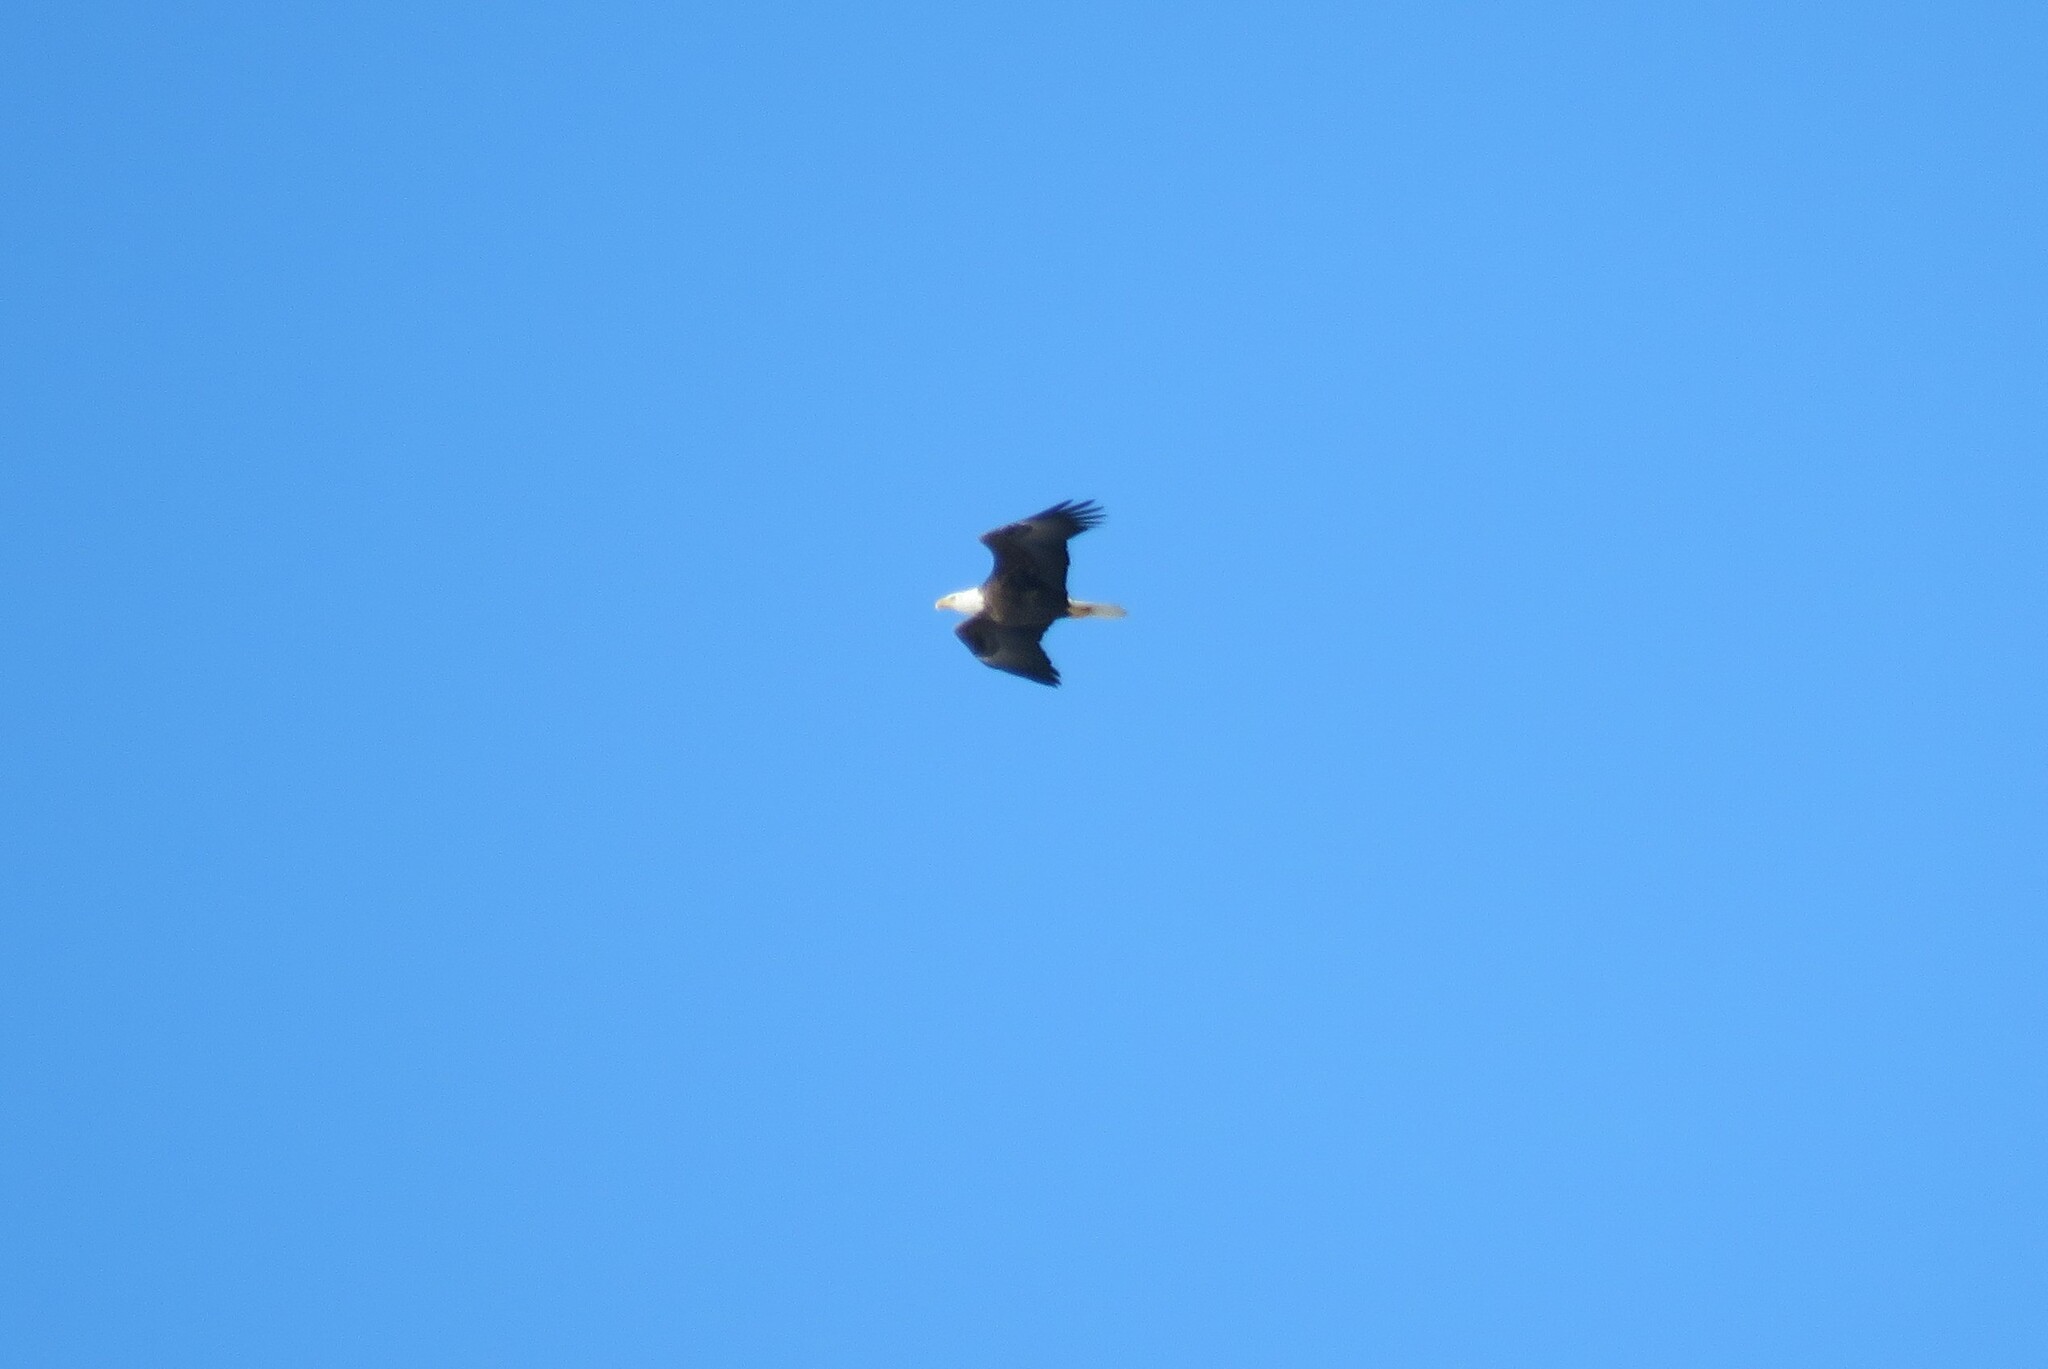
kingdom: Animalia
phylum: Chordata
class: Aves
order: Accipitriformes
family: Accipitridae
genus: Haliaeetus
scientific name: Haliaeetus leucocephalus
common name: Bald eagle
